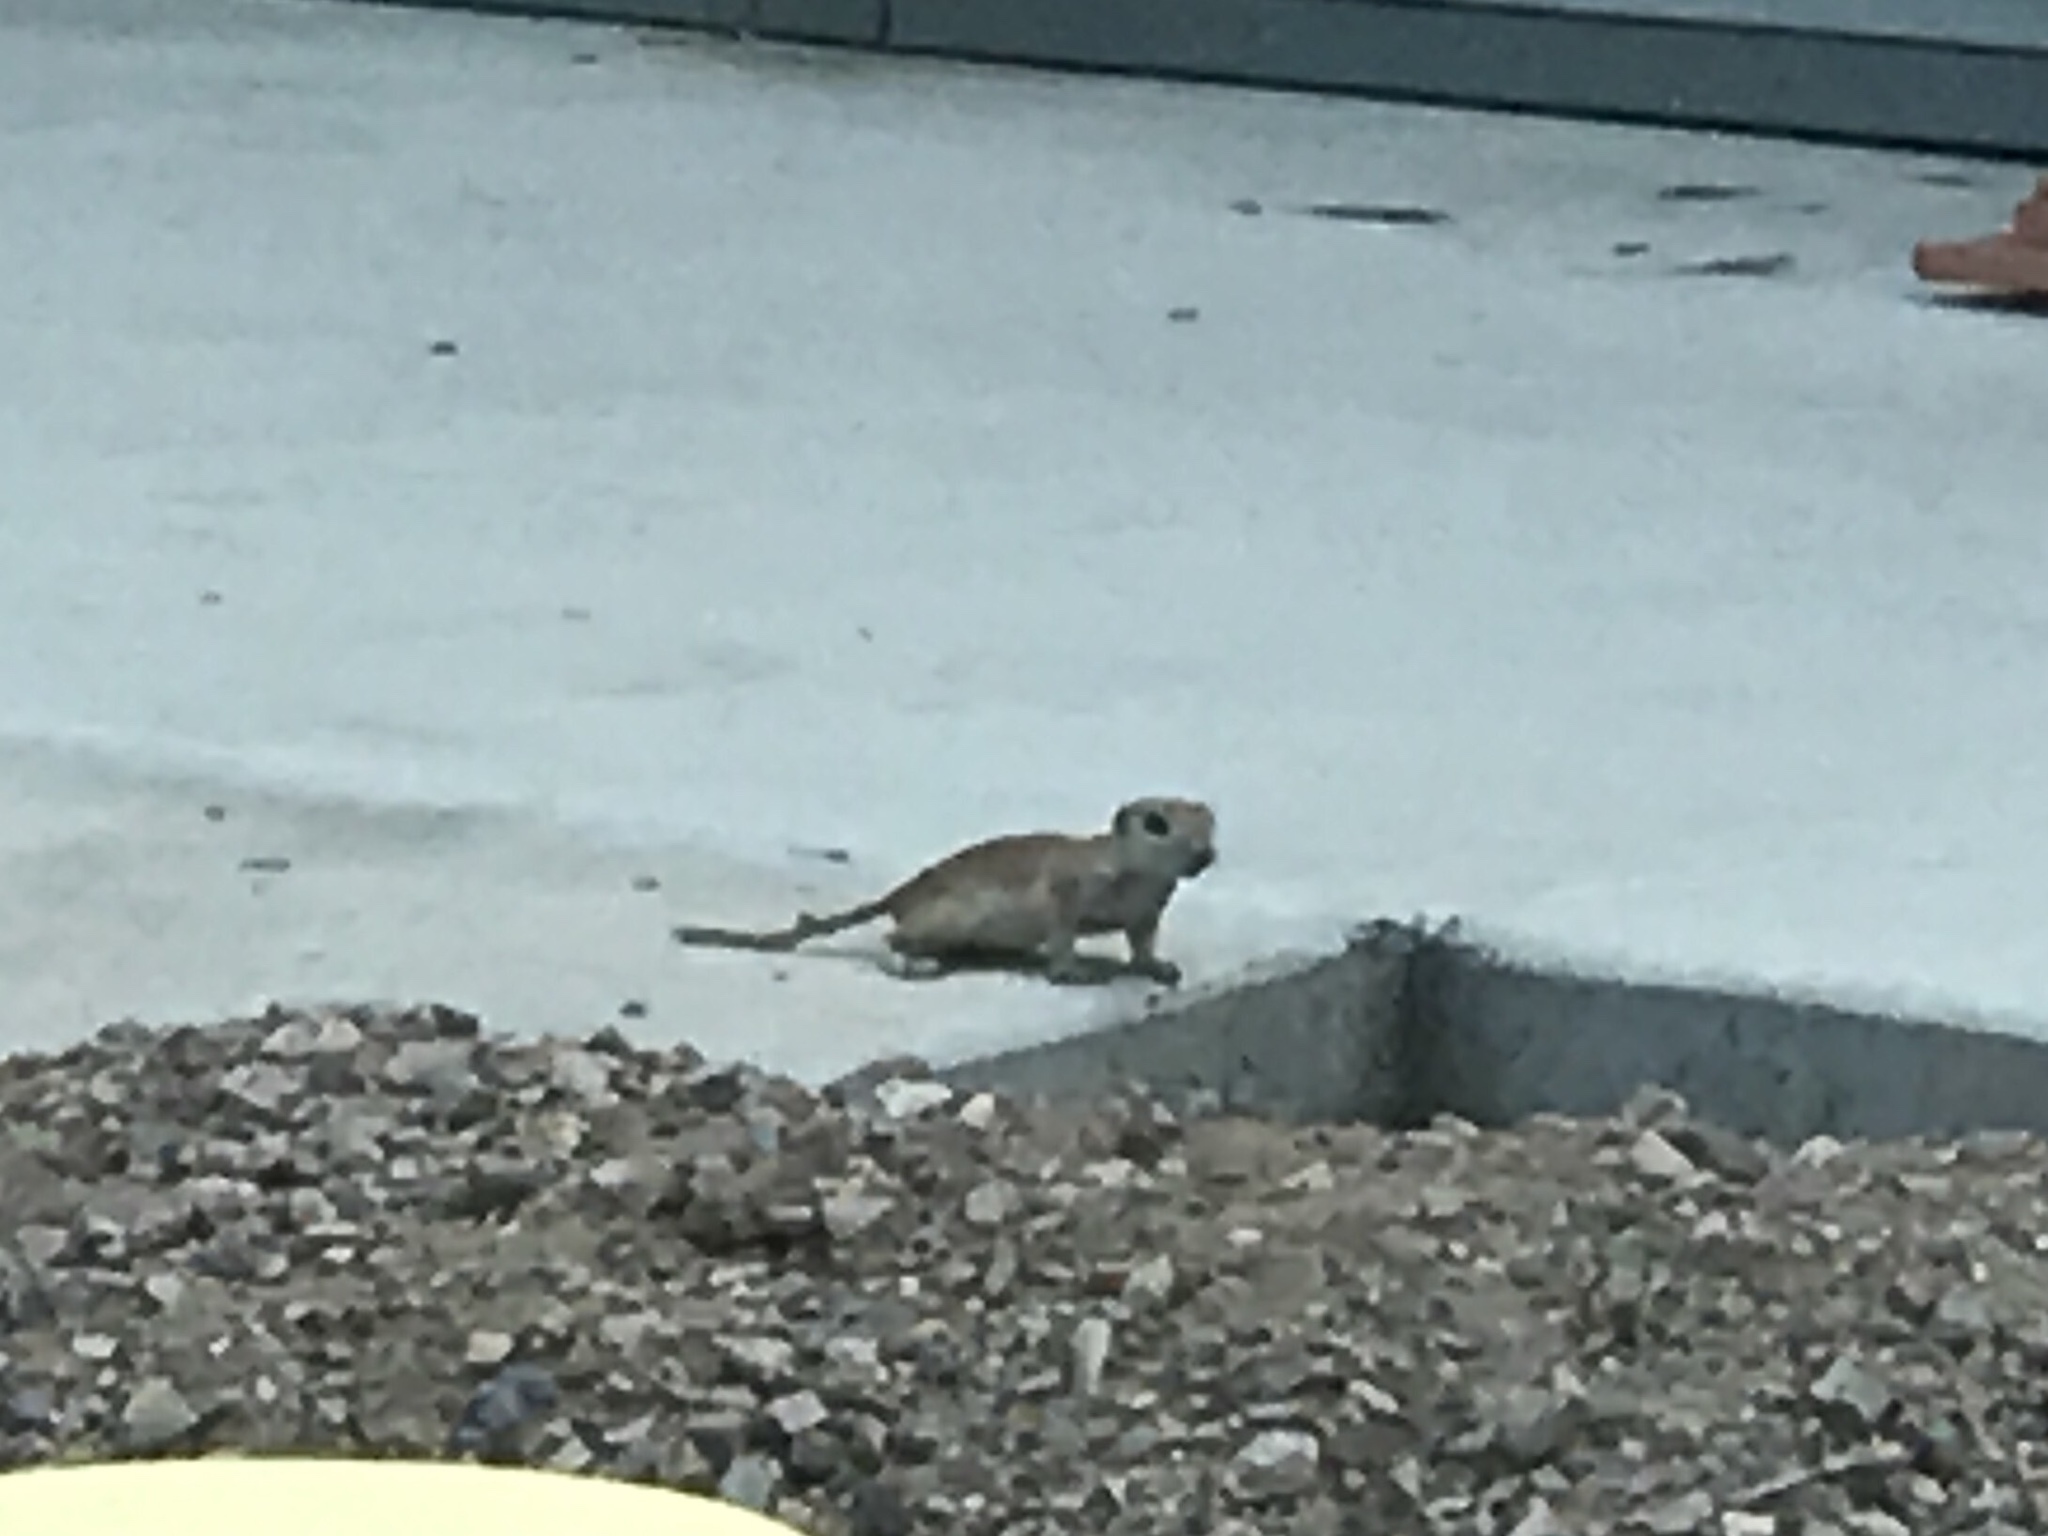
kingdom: Animalia
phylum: Chordata
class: Mammalia
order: Rodentia
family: Sciuridae
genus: Xerospermophilus
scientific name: Xerospermophilus tereticaudus
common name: Round-tailed ground squirrel
